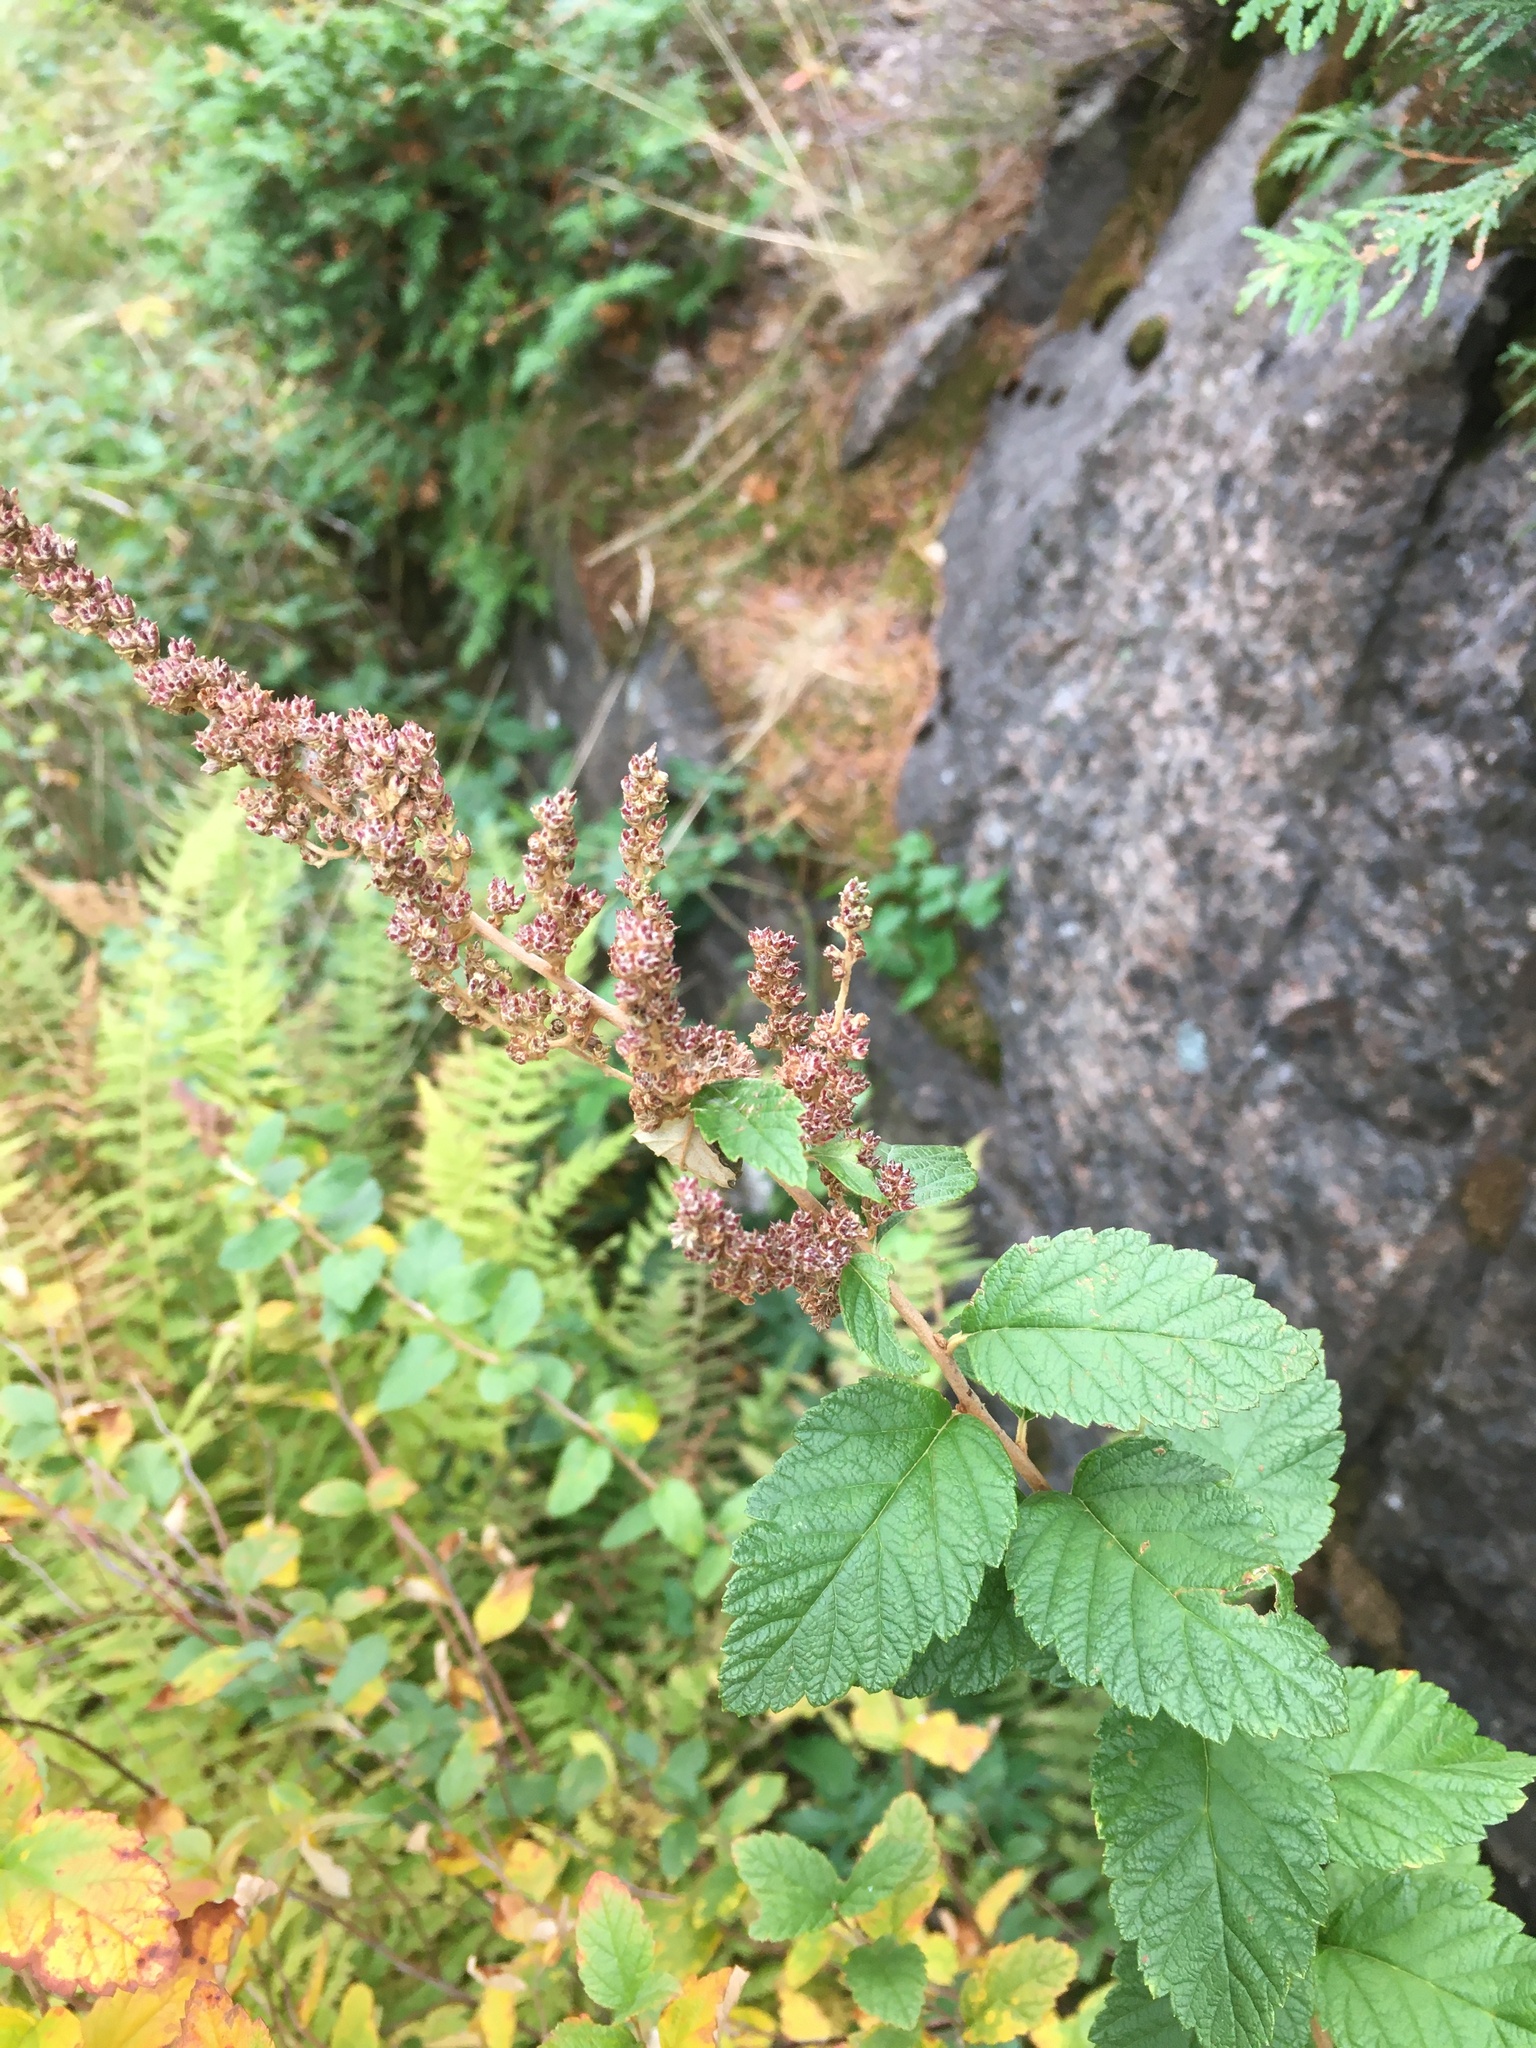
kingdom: Plantae
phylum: Tracheophyta
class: Magnoliopsida
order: Rosales
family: Rosaceae
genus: Spiraea
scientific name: Spiraea tomentosa
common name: Hardhack
